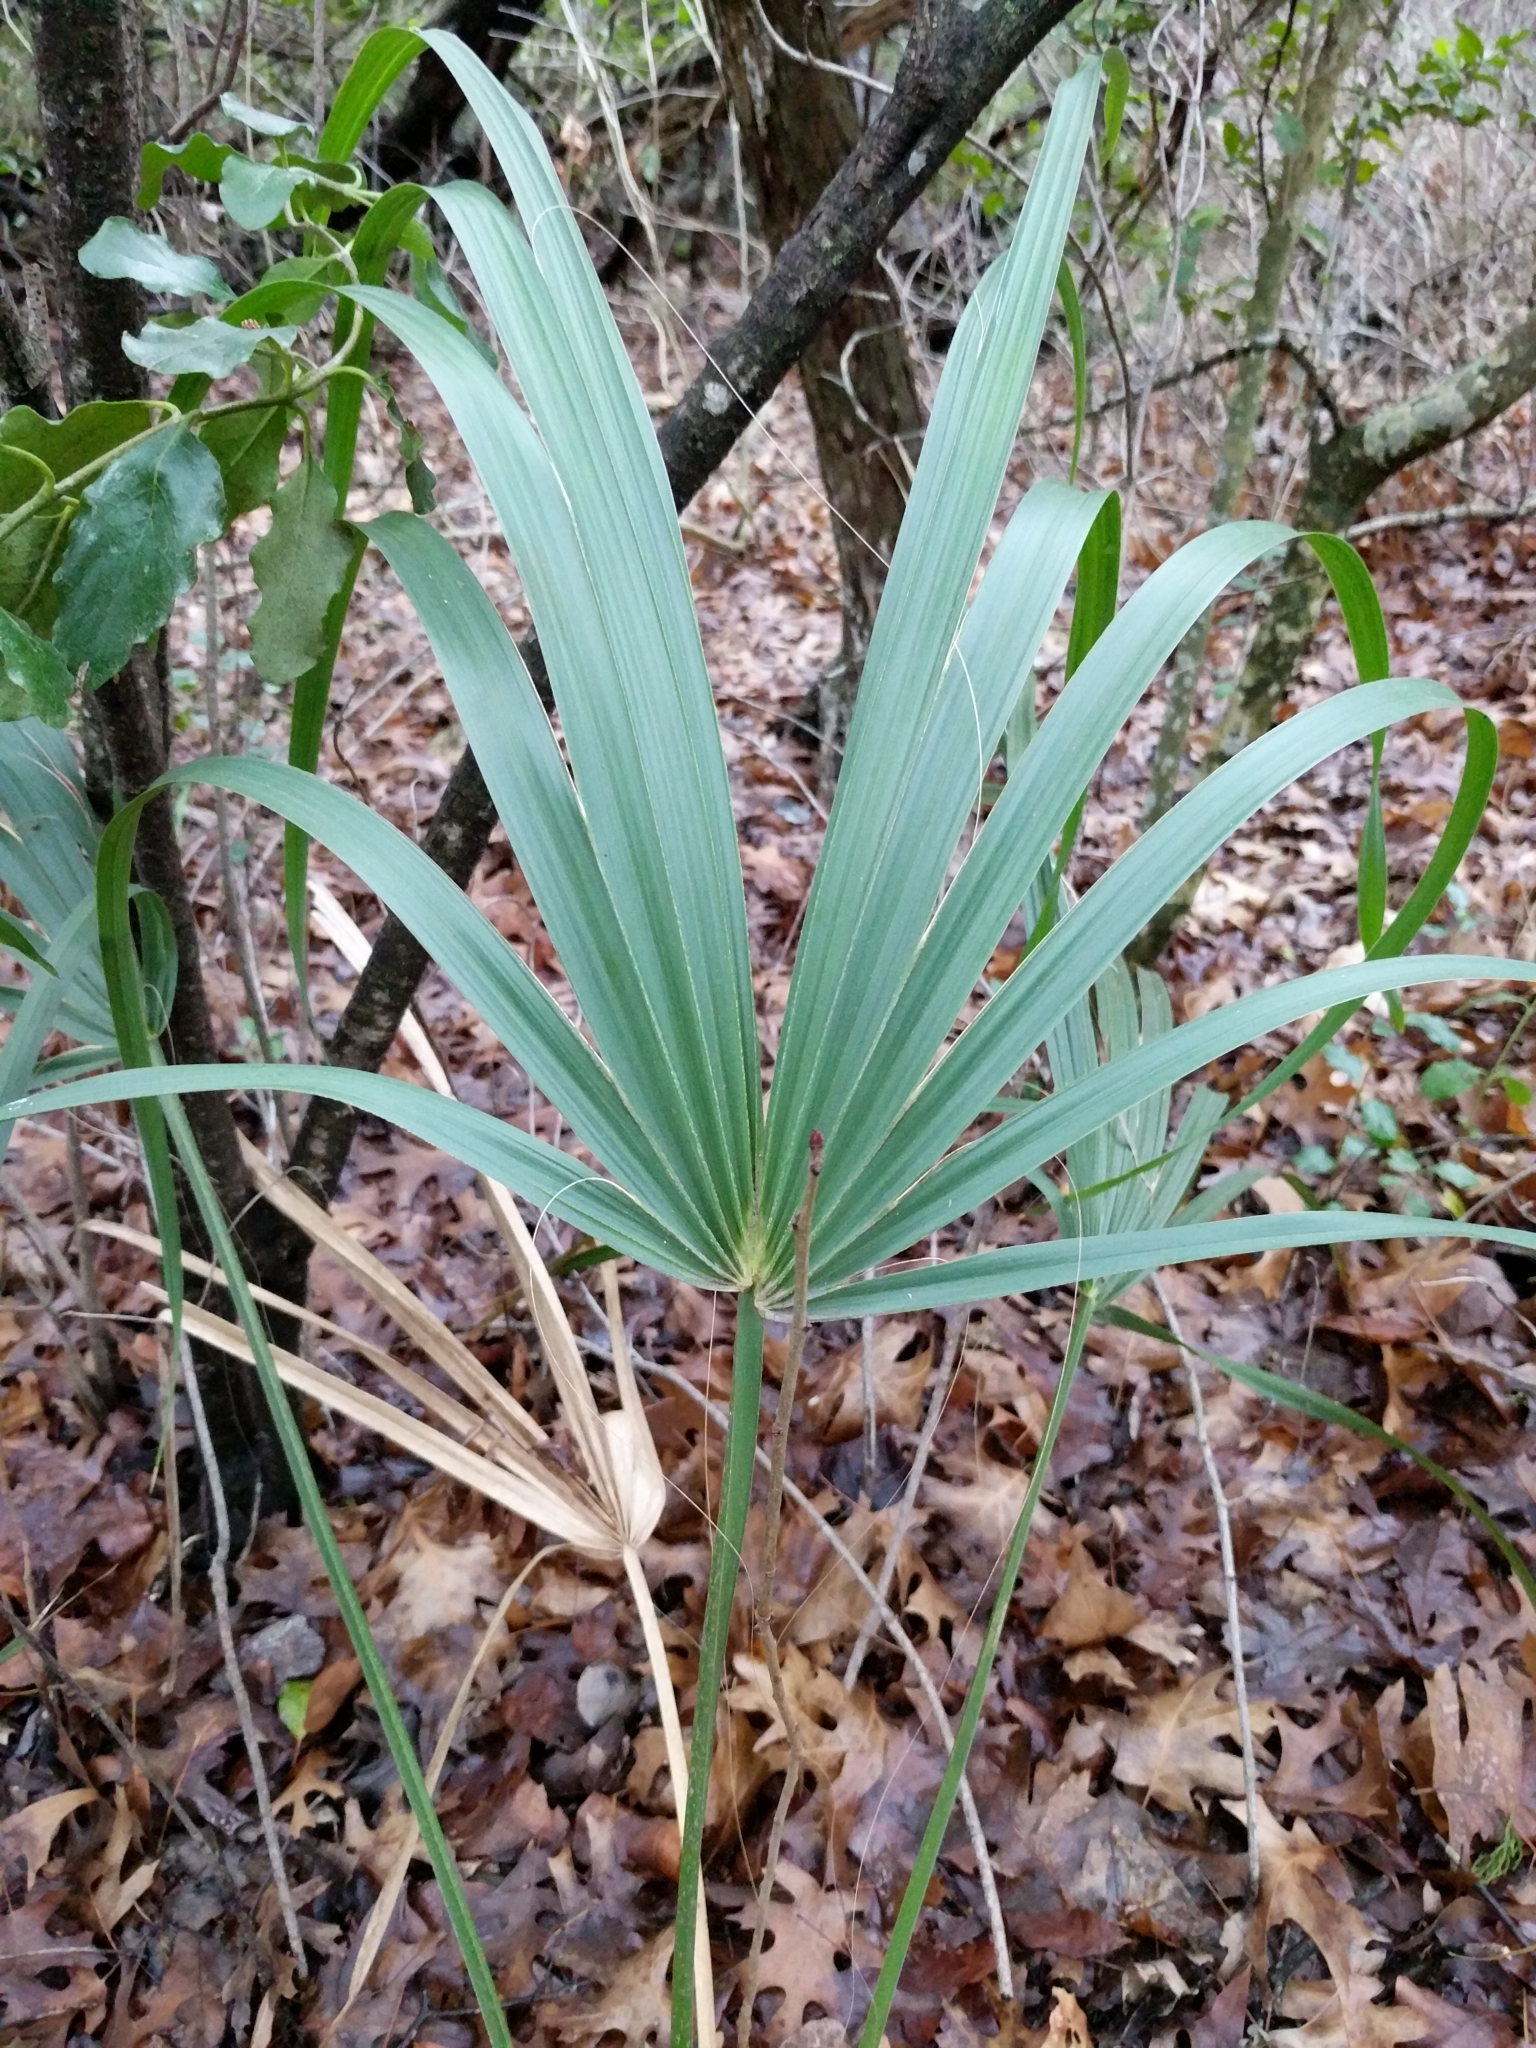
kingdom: Plantae
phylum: Tracheophyta
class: Liliopsida
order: Arecales
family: Arecaceae
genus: Sabal
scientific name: Sabal minor
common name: Dwarf palmetto
